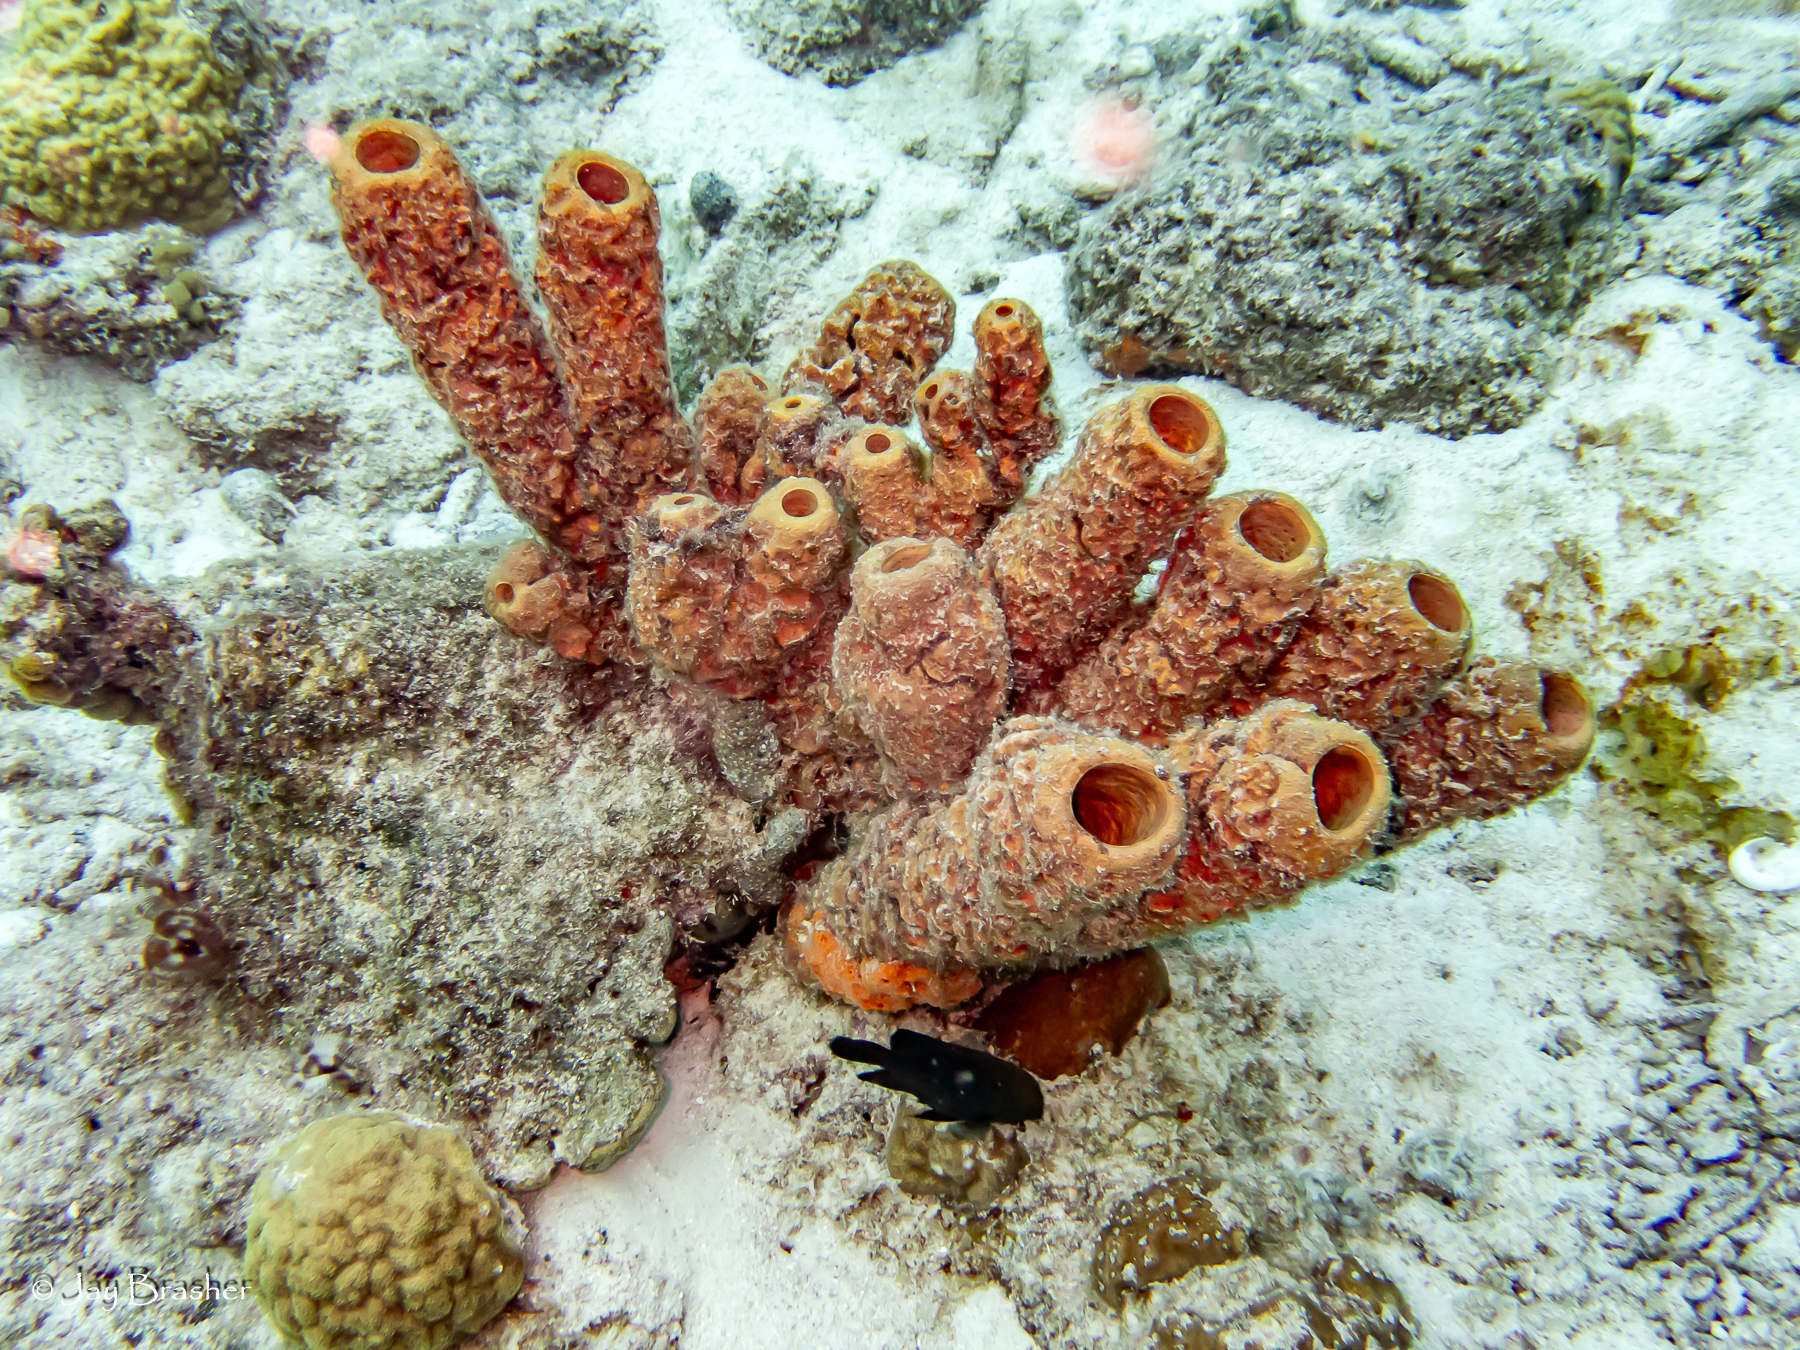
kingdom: Animalia
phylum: Porifera
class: Demospongiae
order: Verongiida
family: Aplysinidae
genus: Aplysina
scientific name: Aplysina archeri
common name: Stove-pipe sponge
